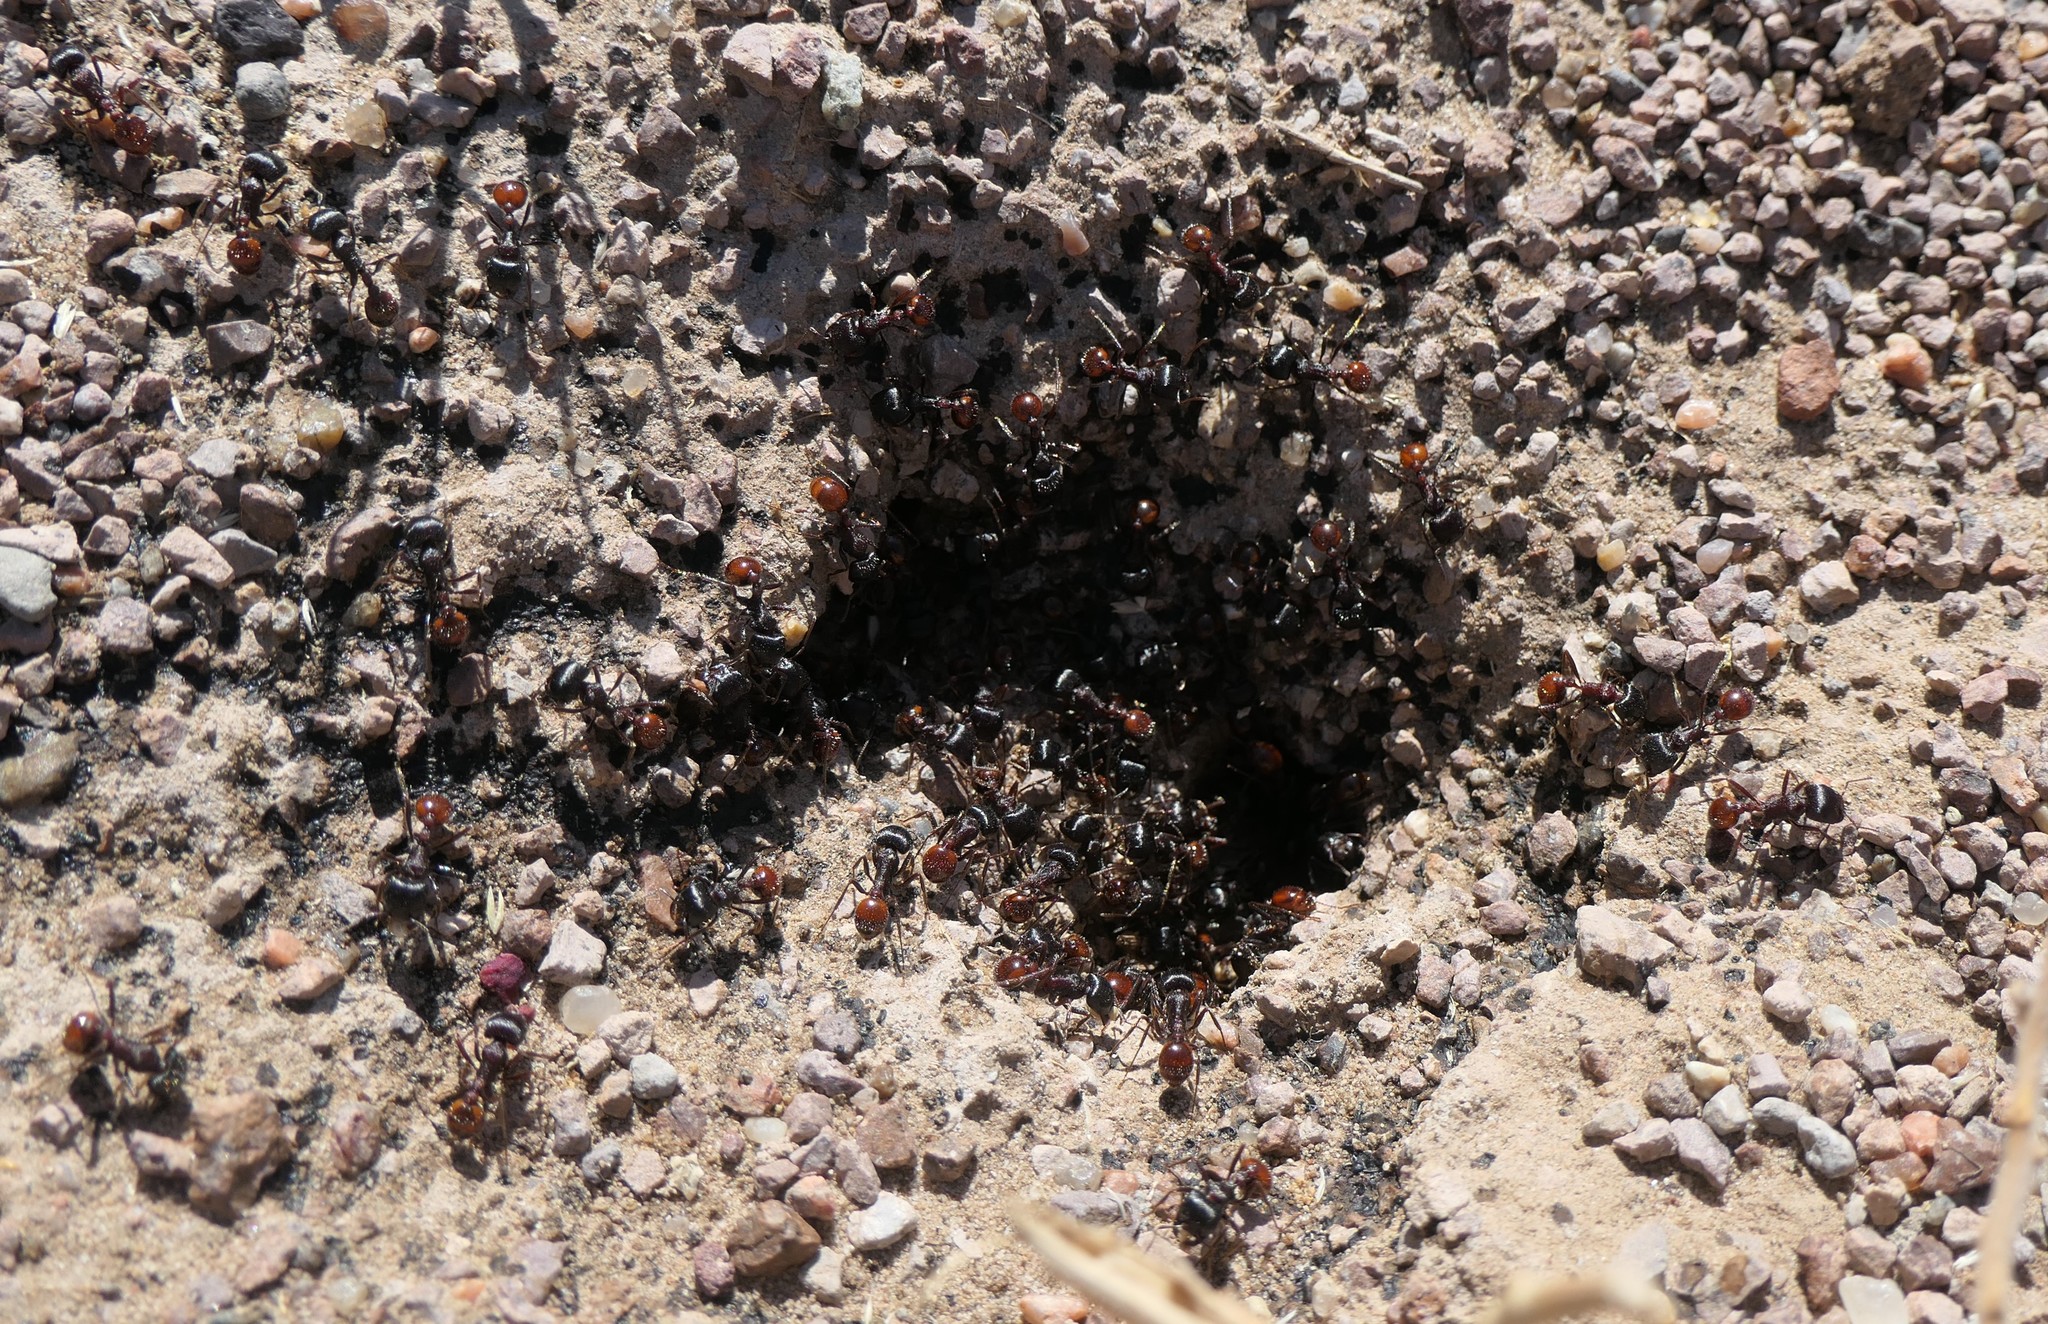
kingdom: Animalia
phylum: Arthropoda
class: Insecta
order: Hymenoptera
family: Formicidae
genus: Pogonomyrmex
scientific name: Pogonomyrmex rugosus
